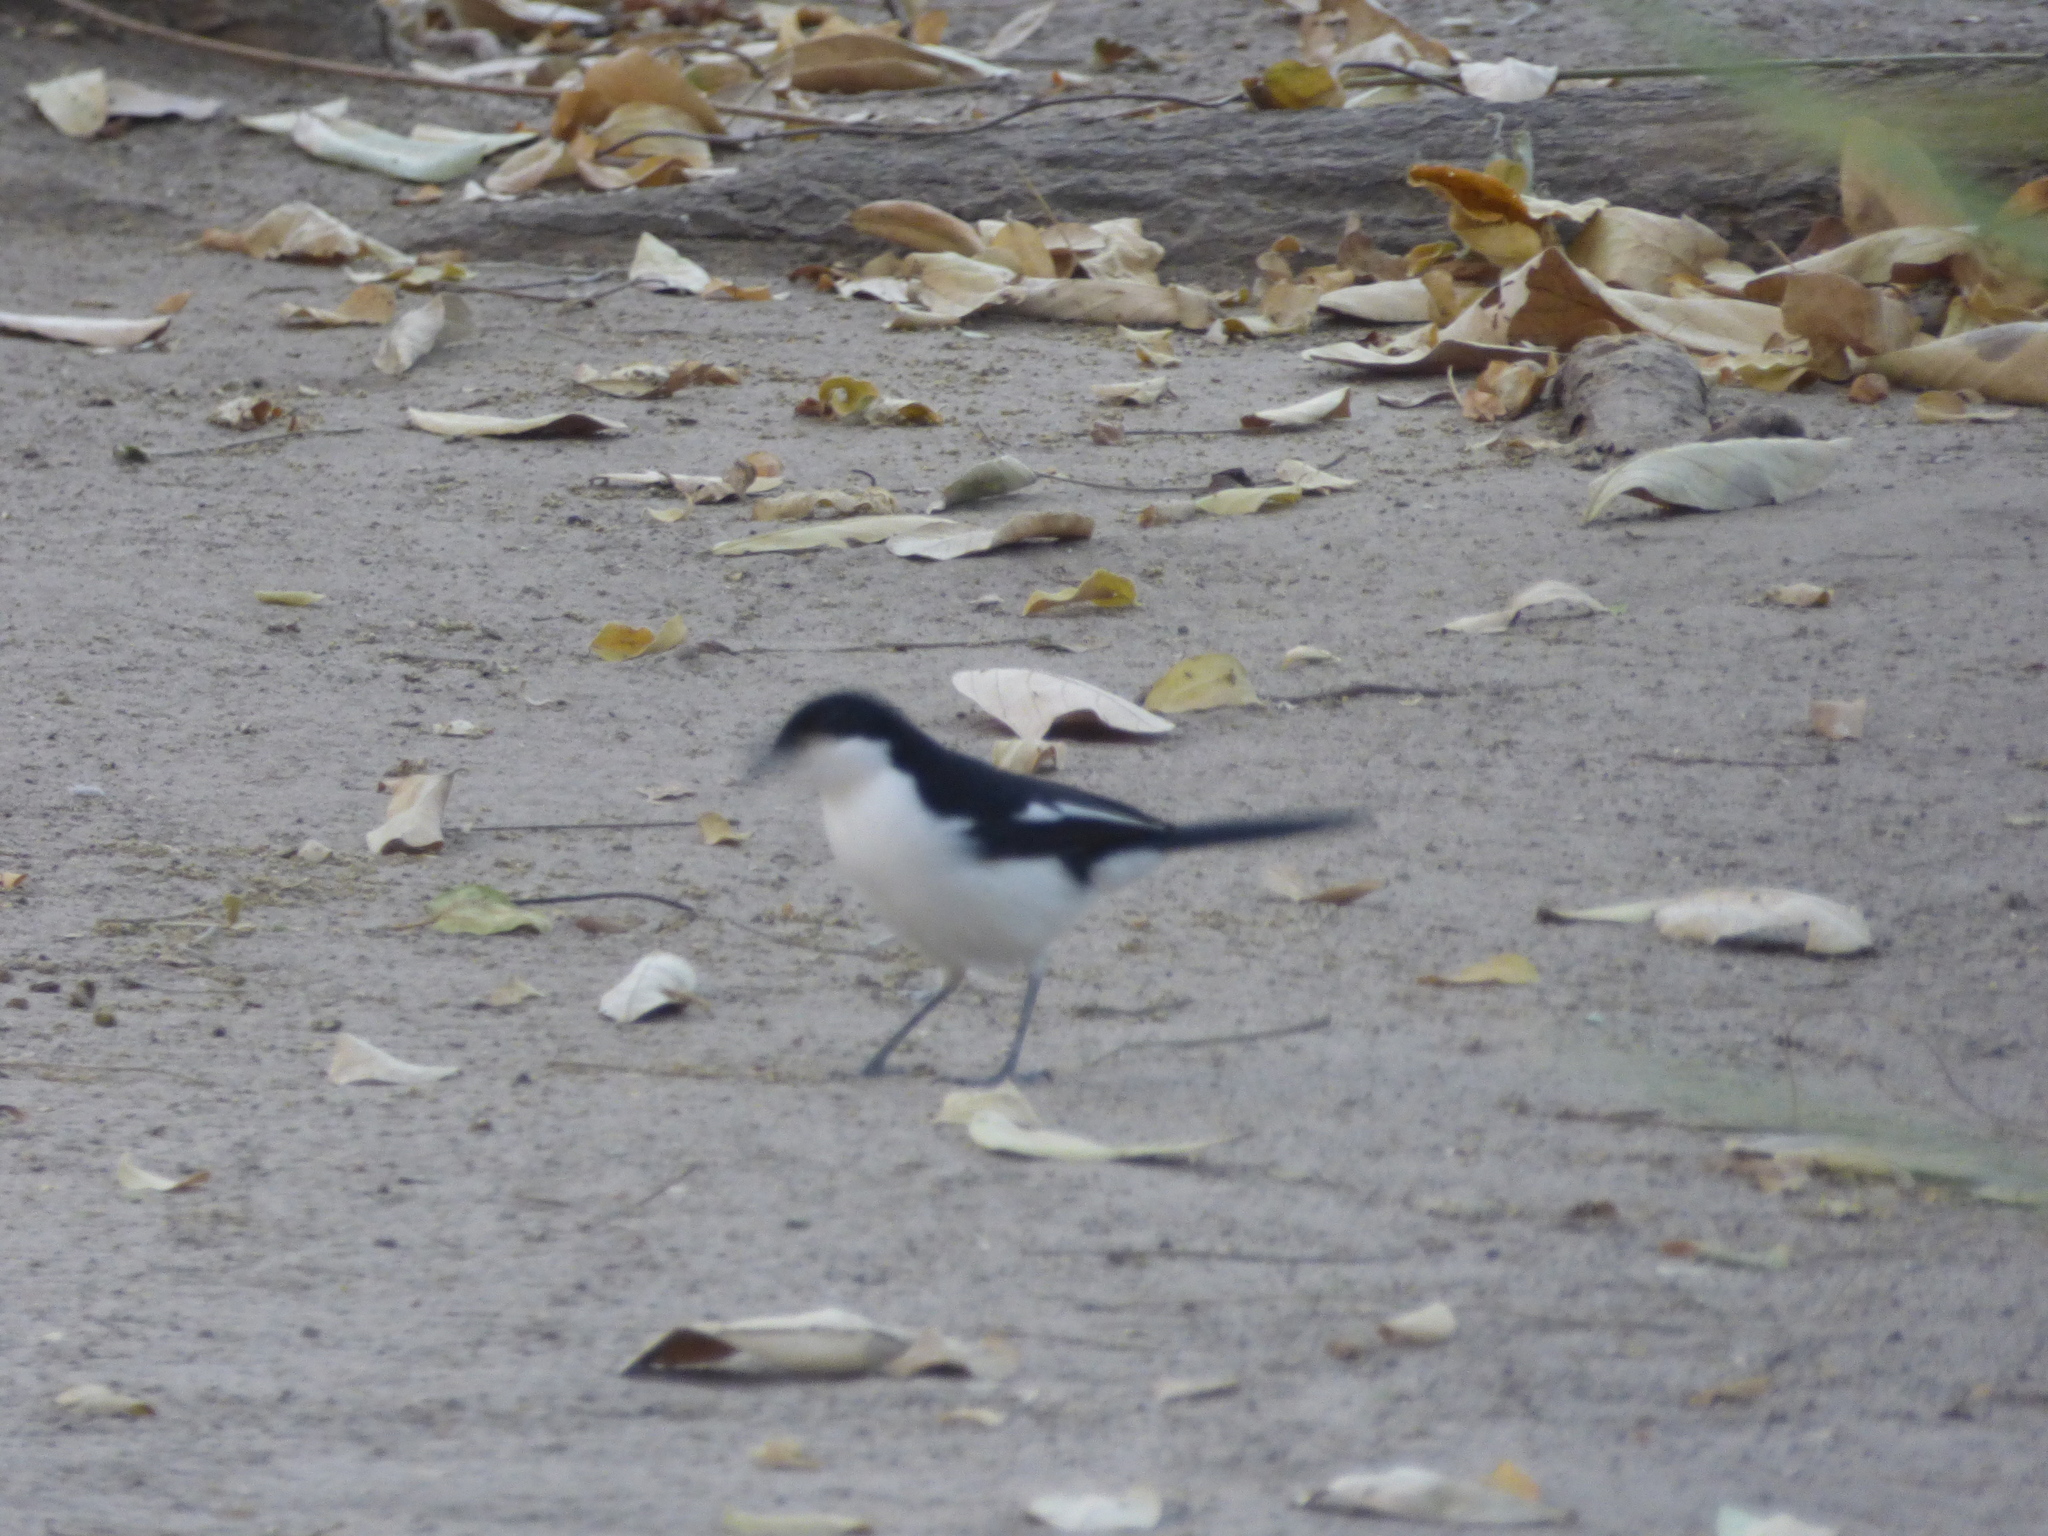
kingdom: Animalia
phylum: Chordata
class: Aves
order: Passeriformes
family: Malaconotidae
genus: Laniarius
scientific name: Laniarius bicolor
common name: Swamp boubou
